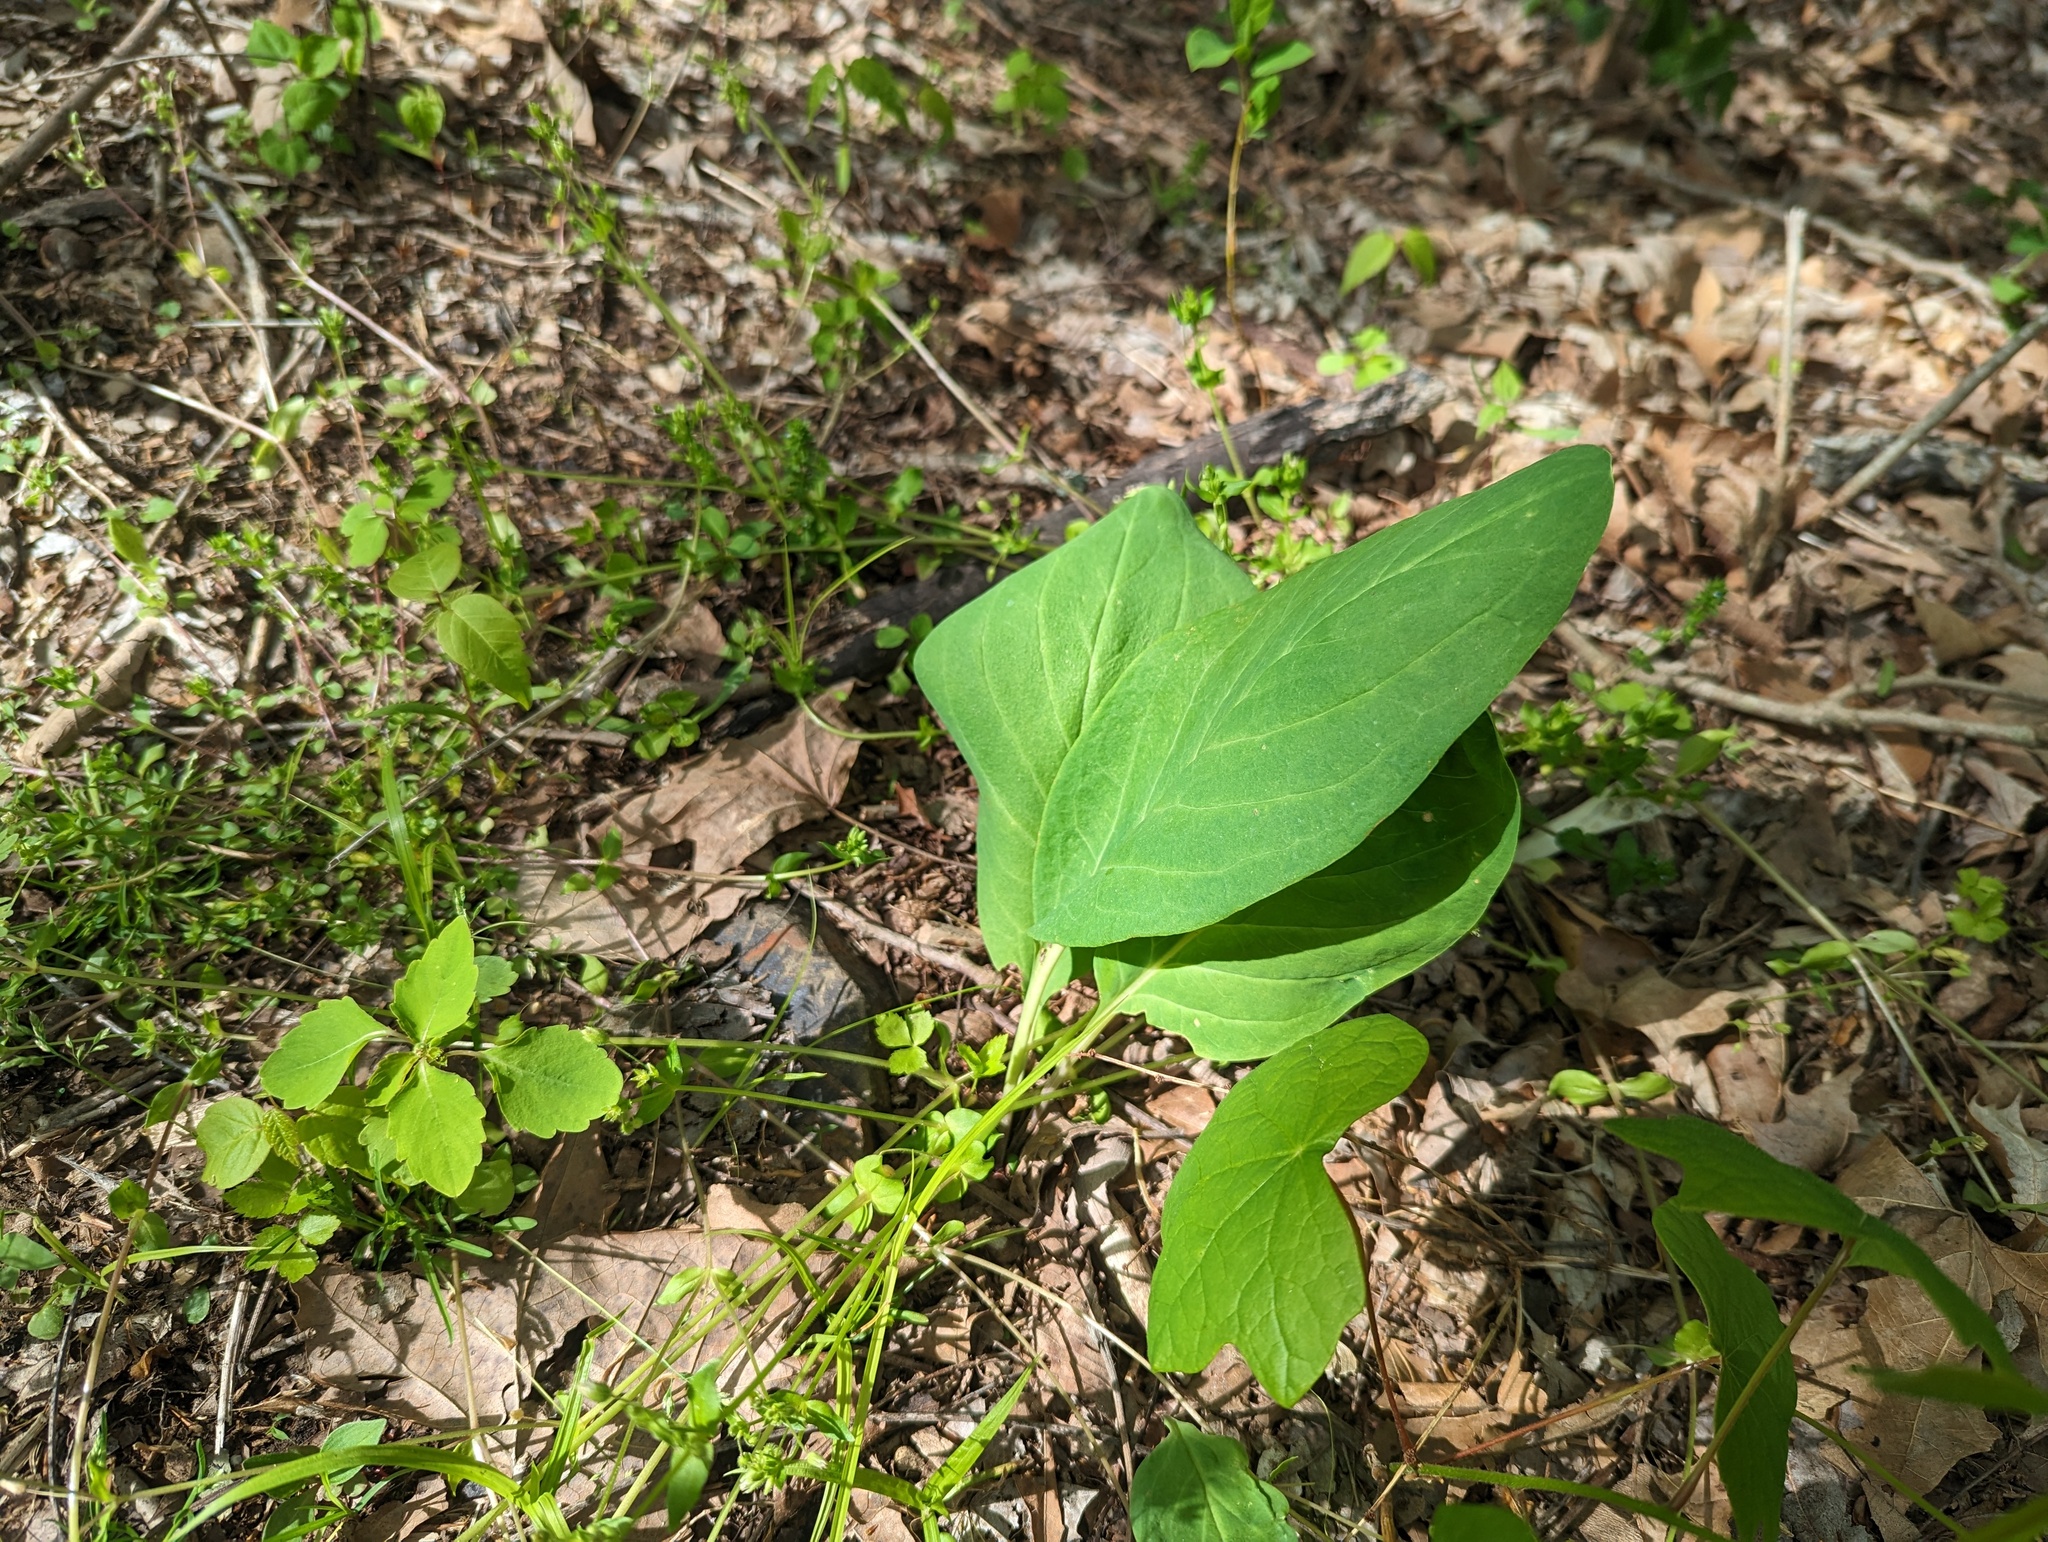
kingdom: Plantae
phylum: Tracheophyta
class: Magnoliopsida
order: Boraginales
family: Boraginaceae
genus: Mertensia
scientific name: Mertensia virginica
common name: Virginia bluebells
